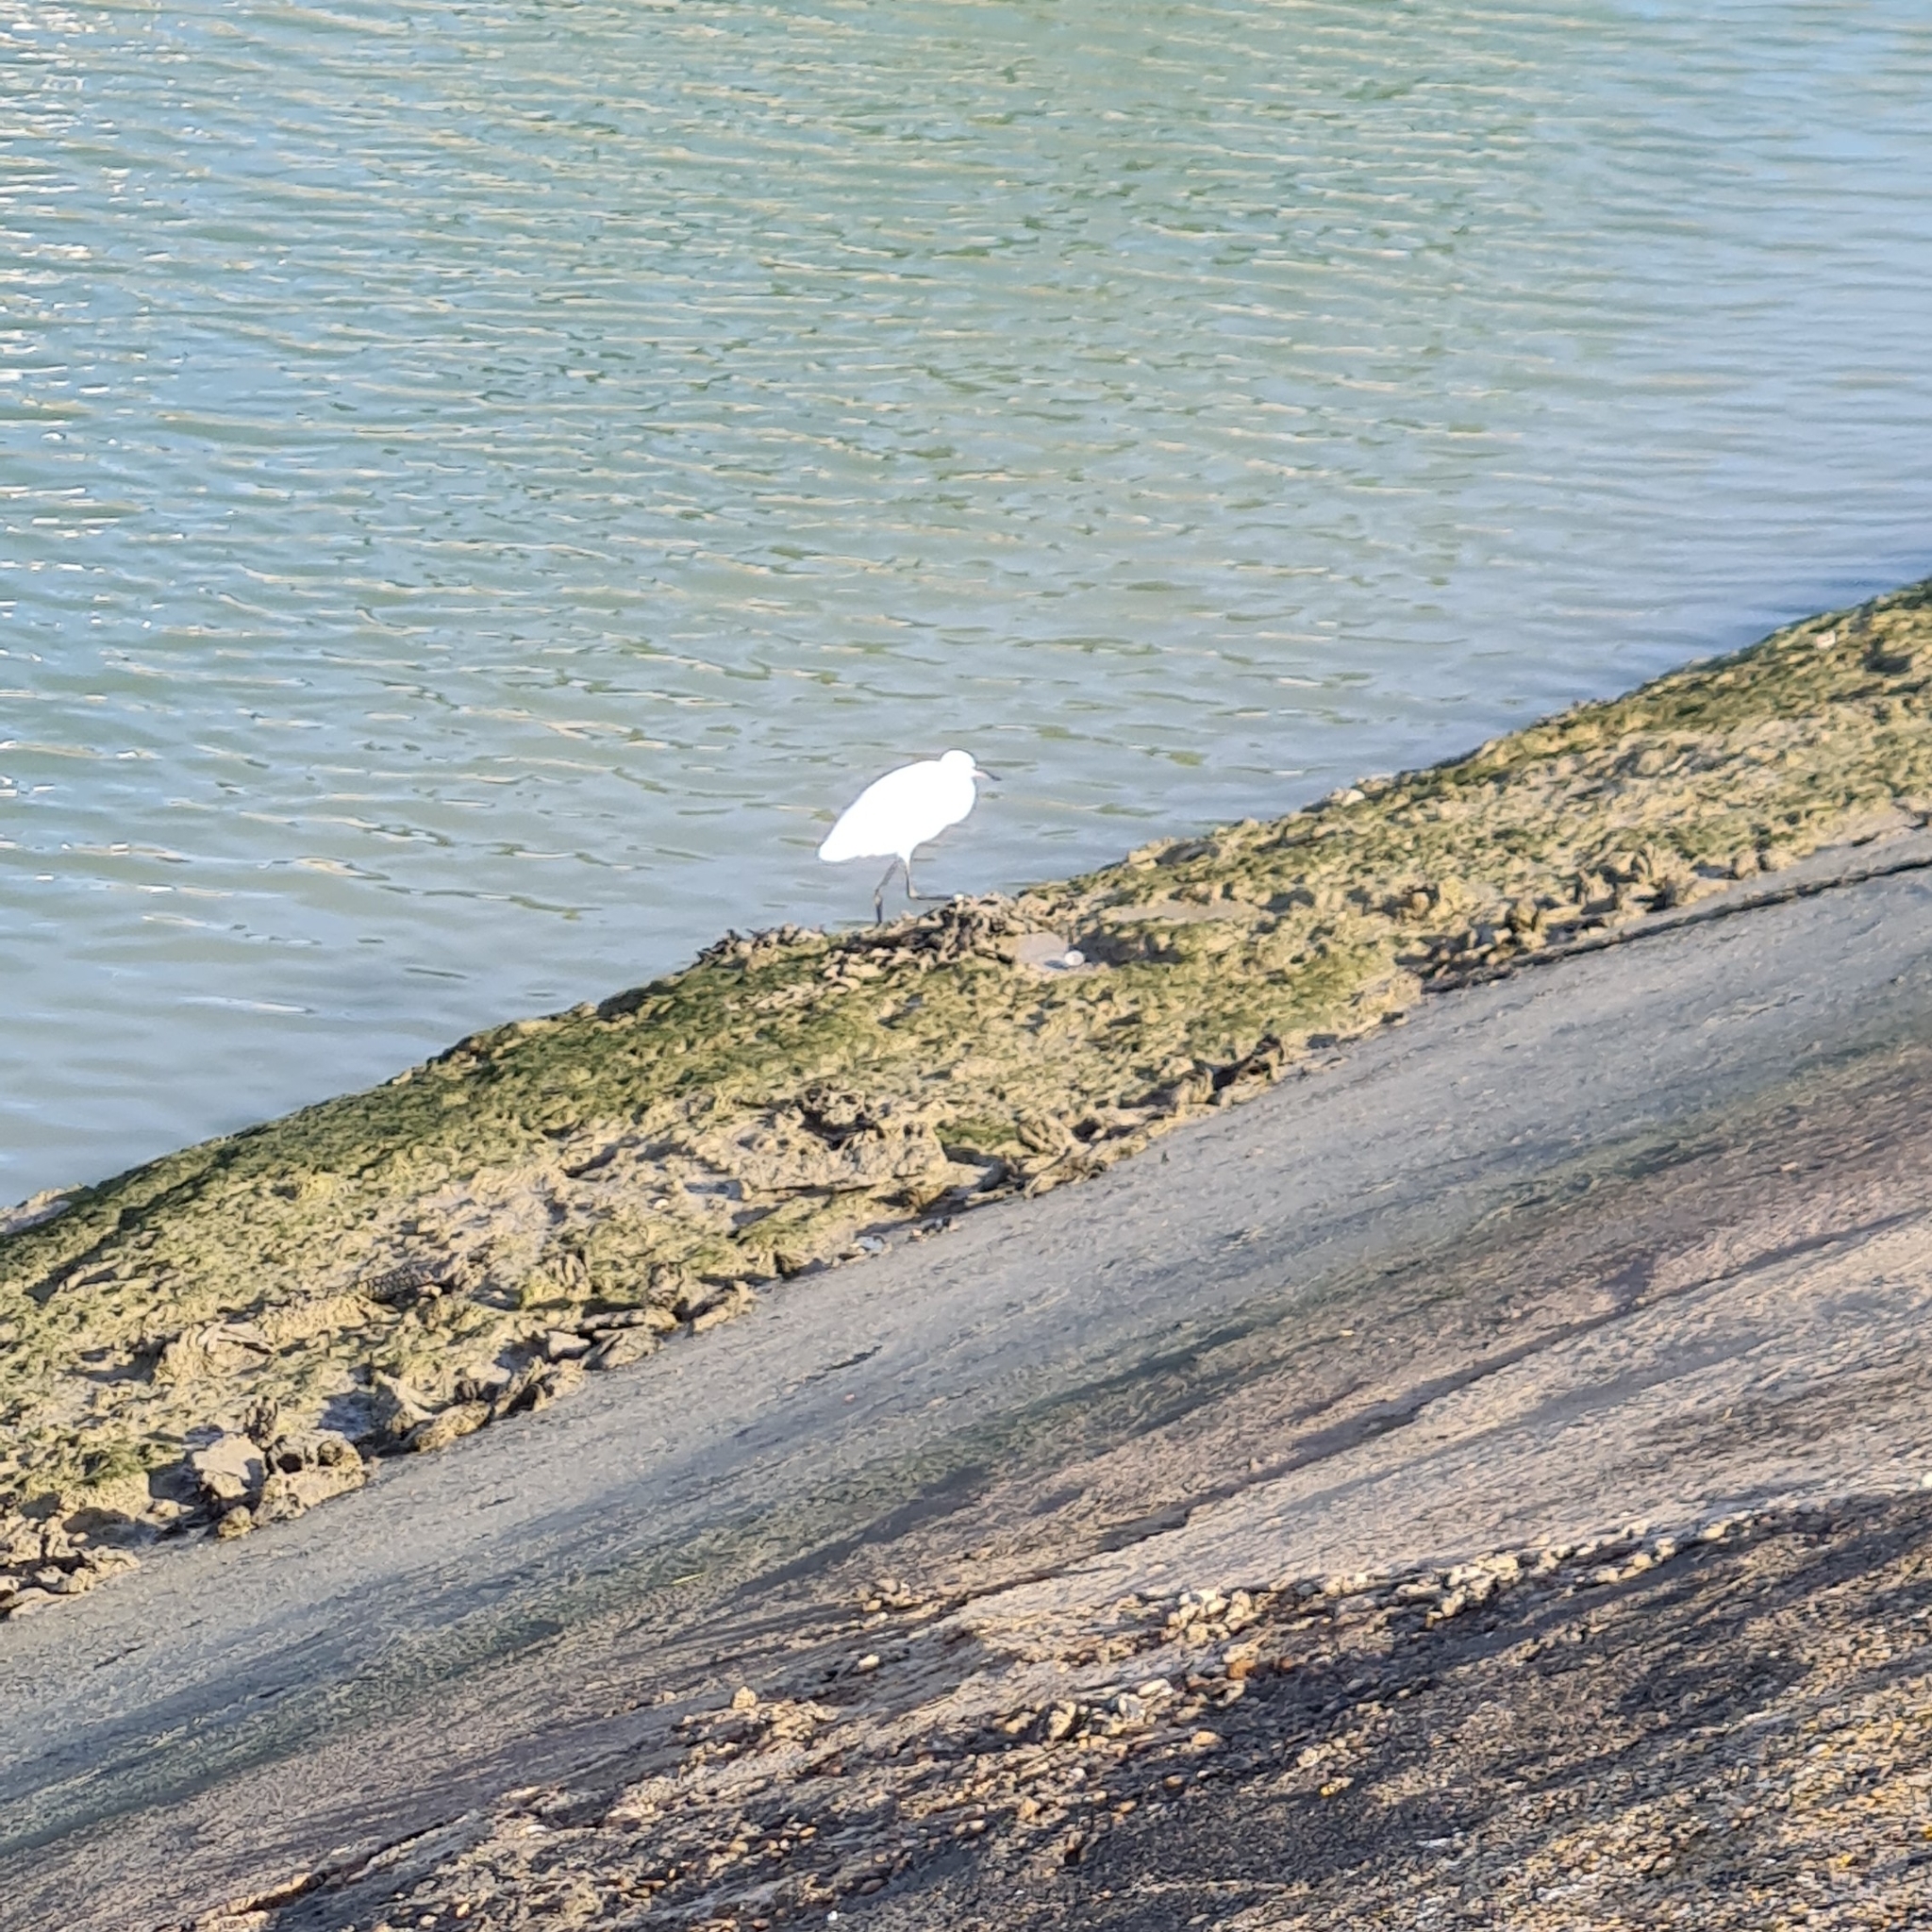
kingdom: Animalia
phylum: Chordata
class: Aves
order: Pelecaniformes
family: Ardeidae
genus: Egretta
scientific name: Egretta garzetta
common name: Little egret
